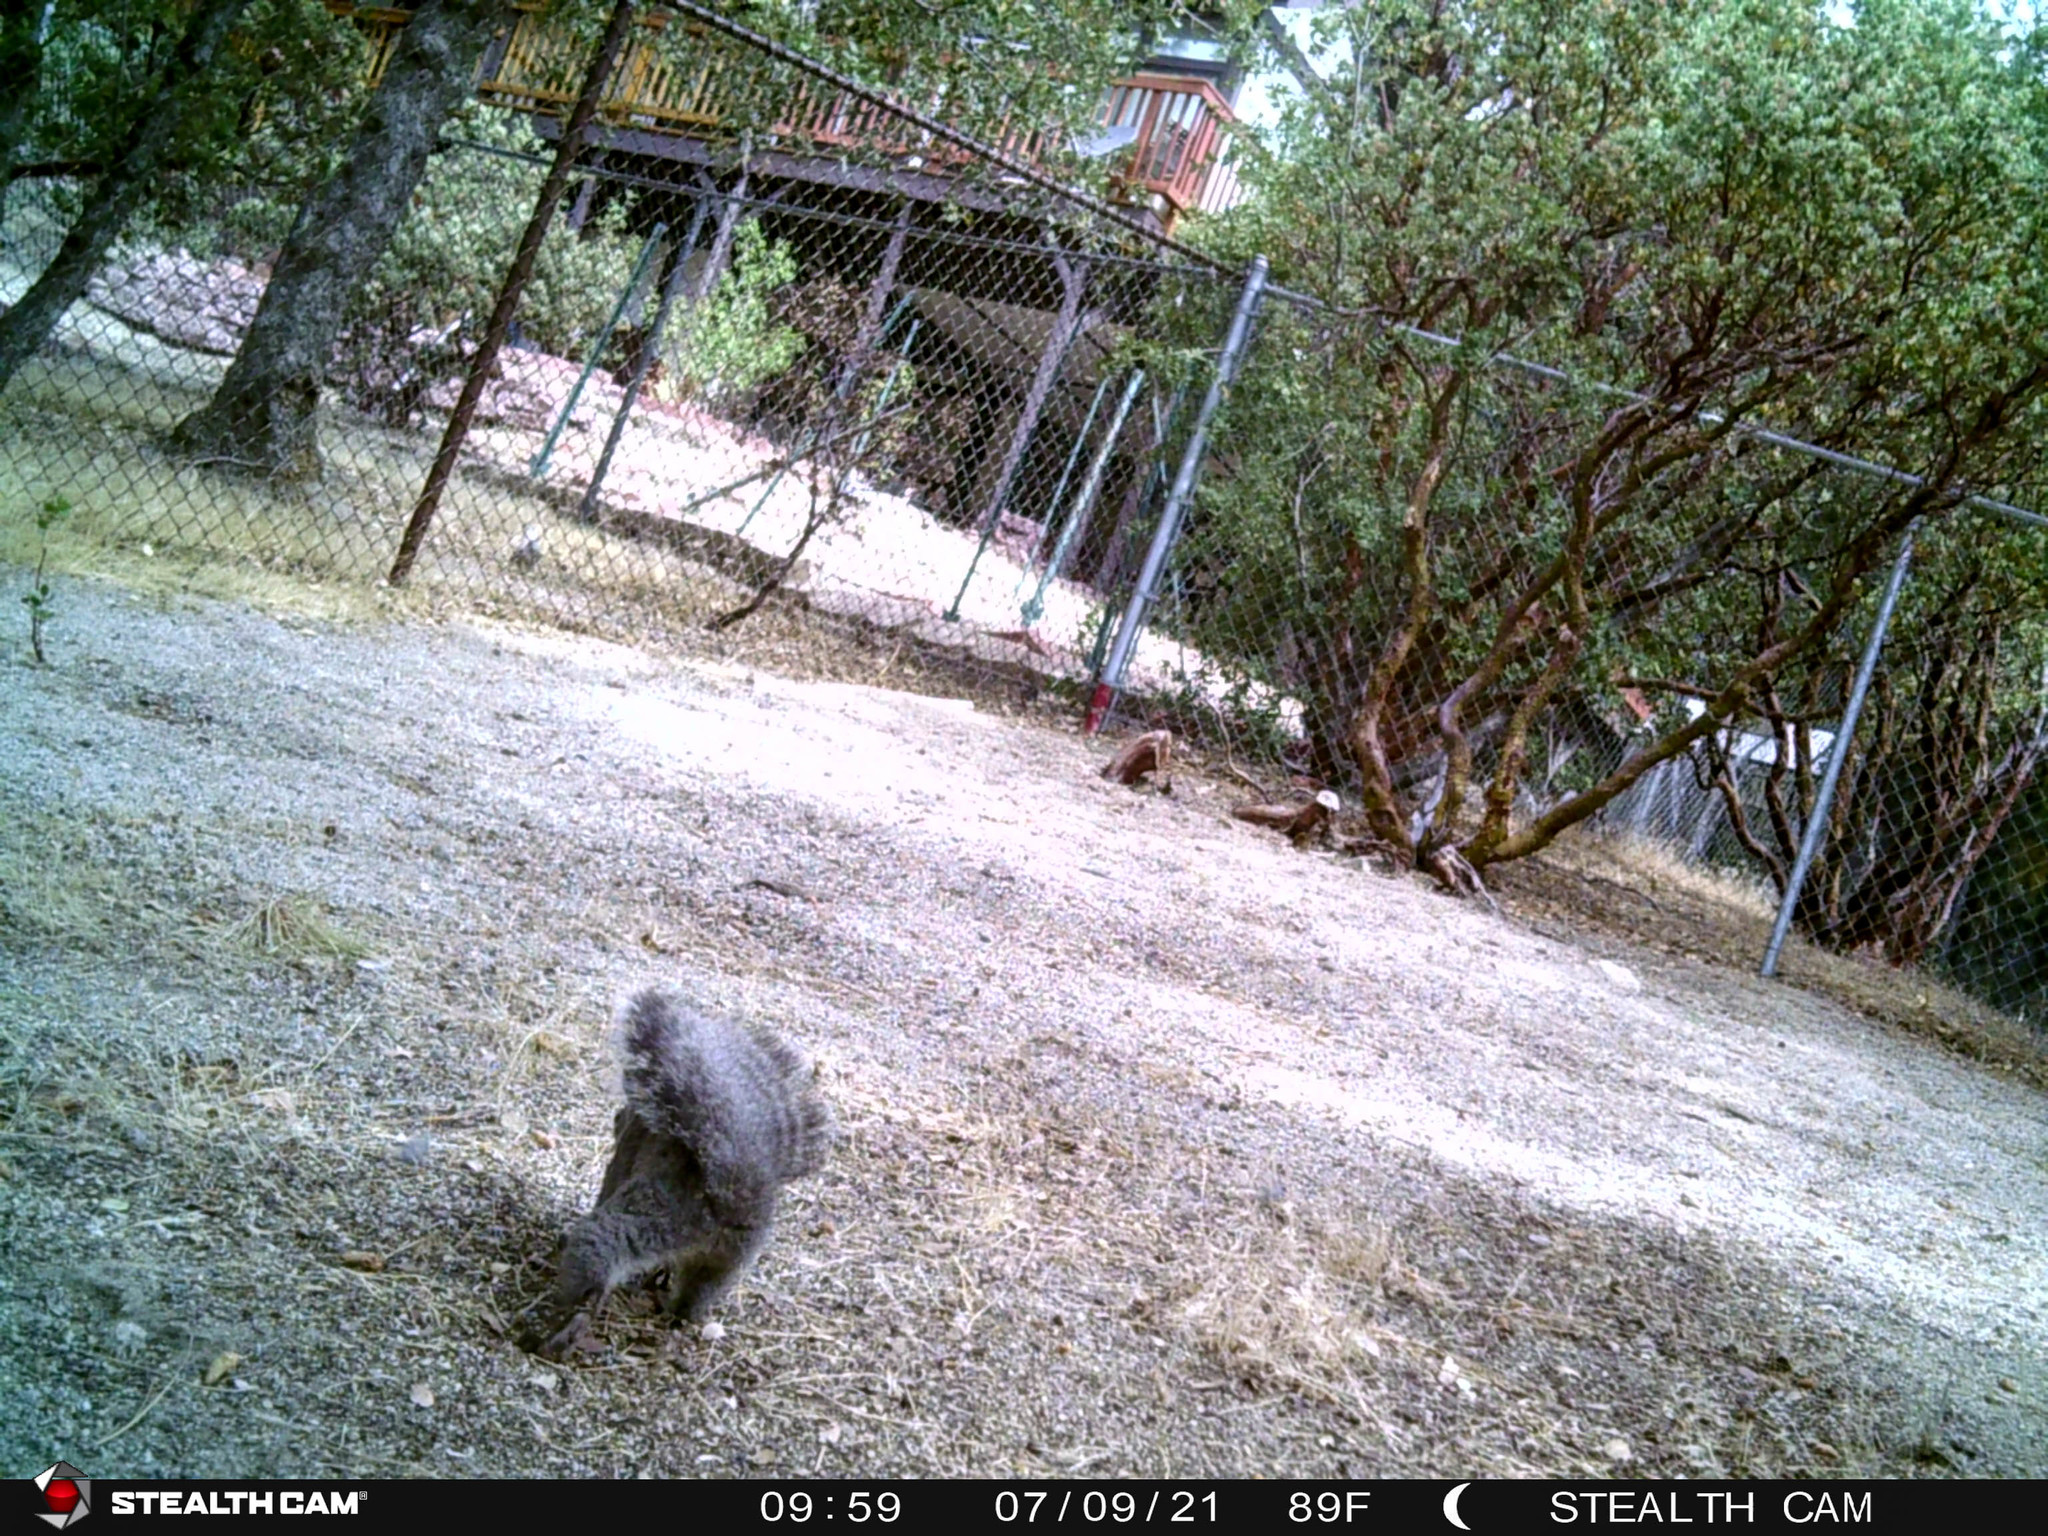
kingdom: Animalia
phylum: Chordata
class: Mammalia
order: Rodentia
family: Sciuridae
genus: Sciurus
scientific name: Sciurus griseus
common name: Western gray squirrel
